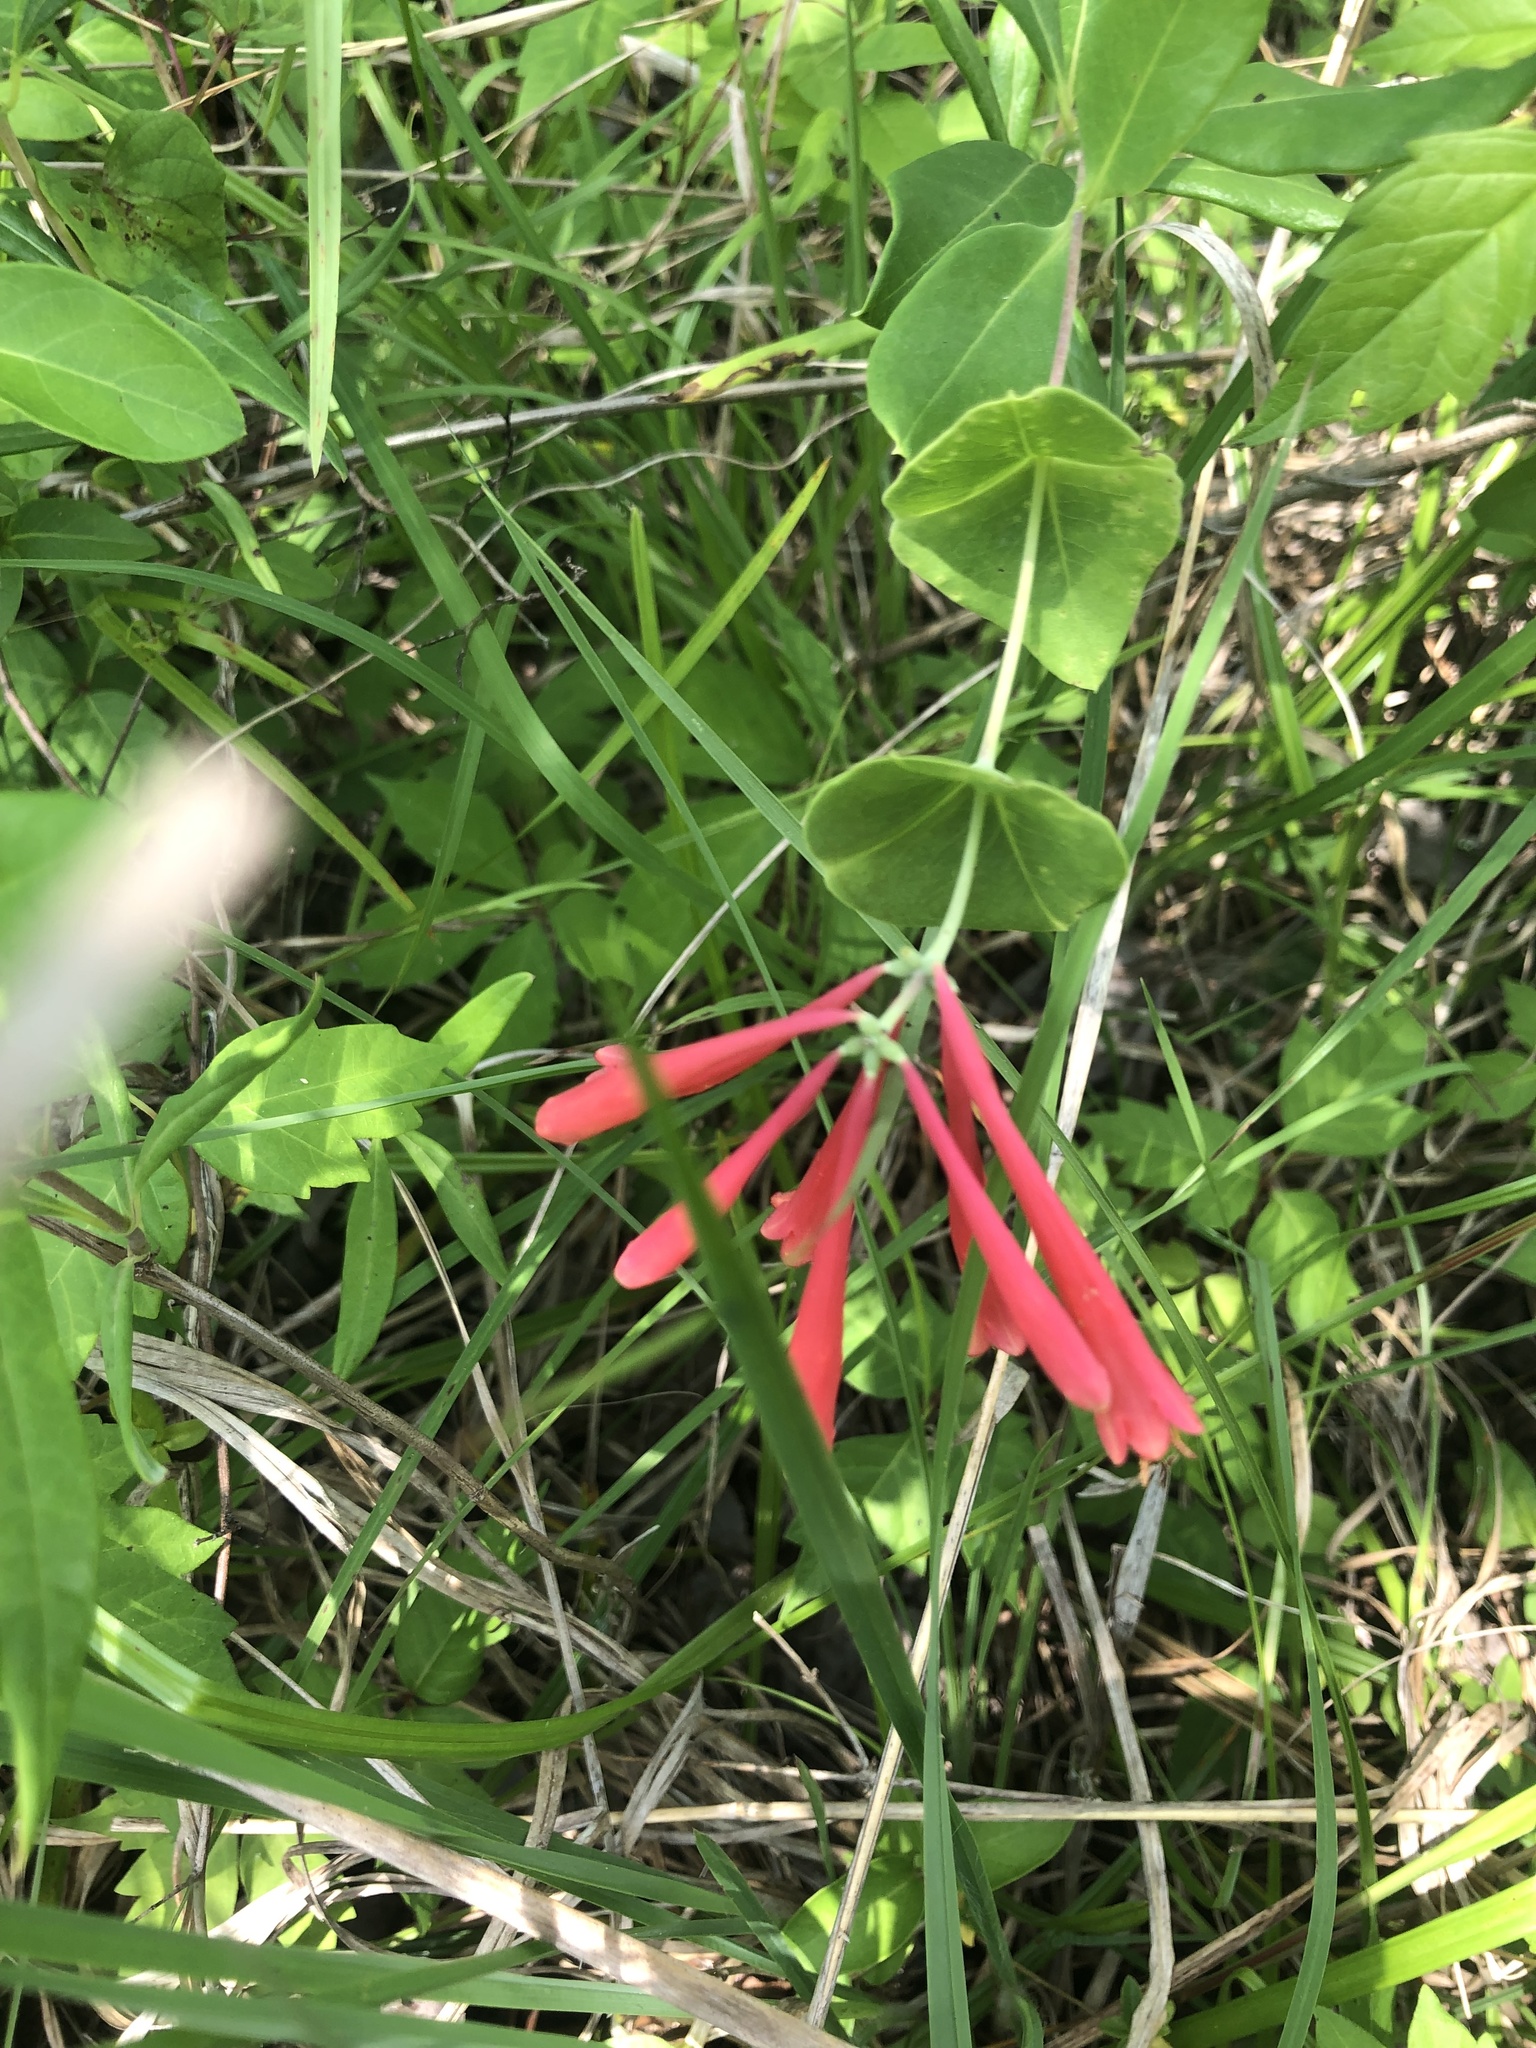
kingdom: Plantae
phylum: Tracheophyta
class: Magnoliopsida
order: Dipsacales
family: Caprifoliaceae
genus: Lonicera
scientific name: Lonicera sempervirens
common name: Coral honeysuckle
